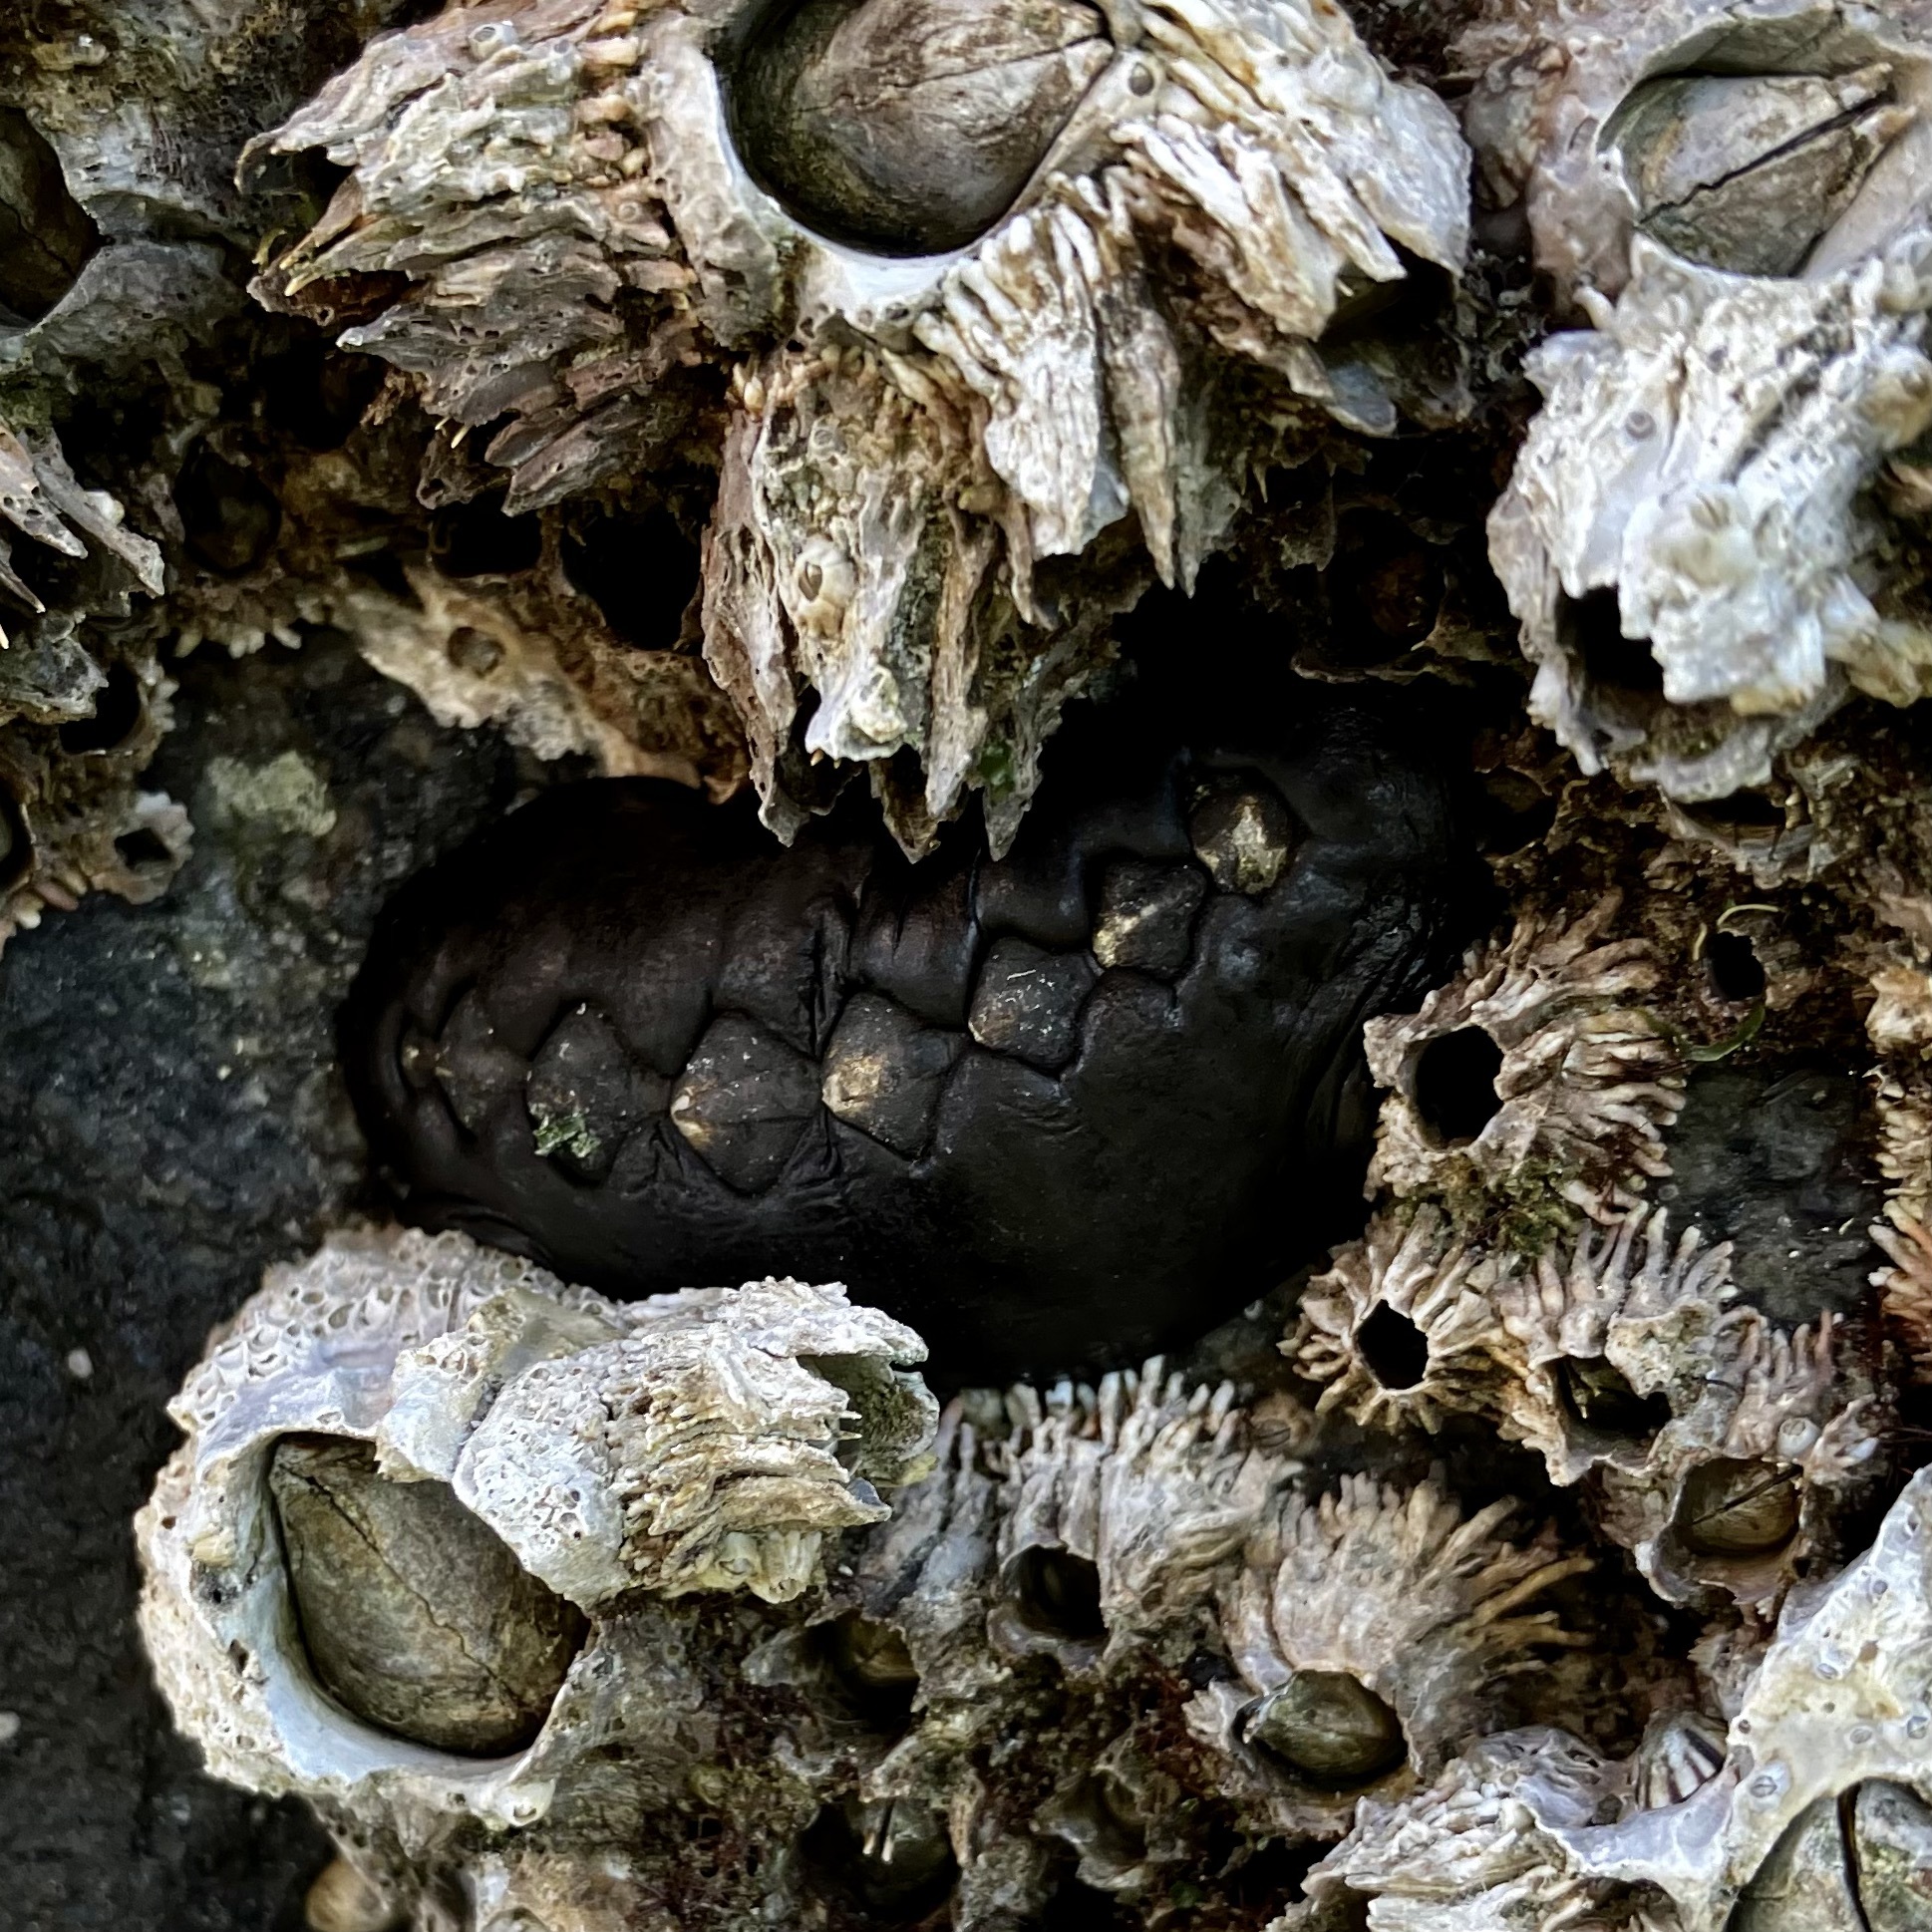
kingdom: Animalia
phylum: Mollusca
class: Polyplacophora
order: Chitonida
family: Mopaliidae
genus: Katharina
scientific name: Katharina tunicata
